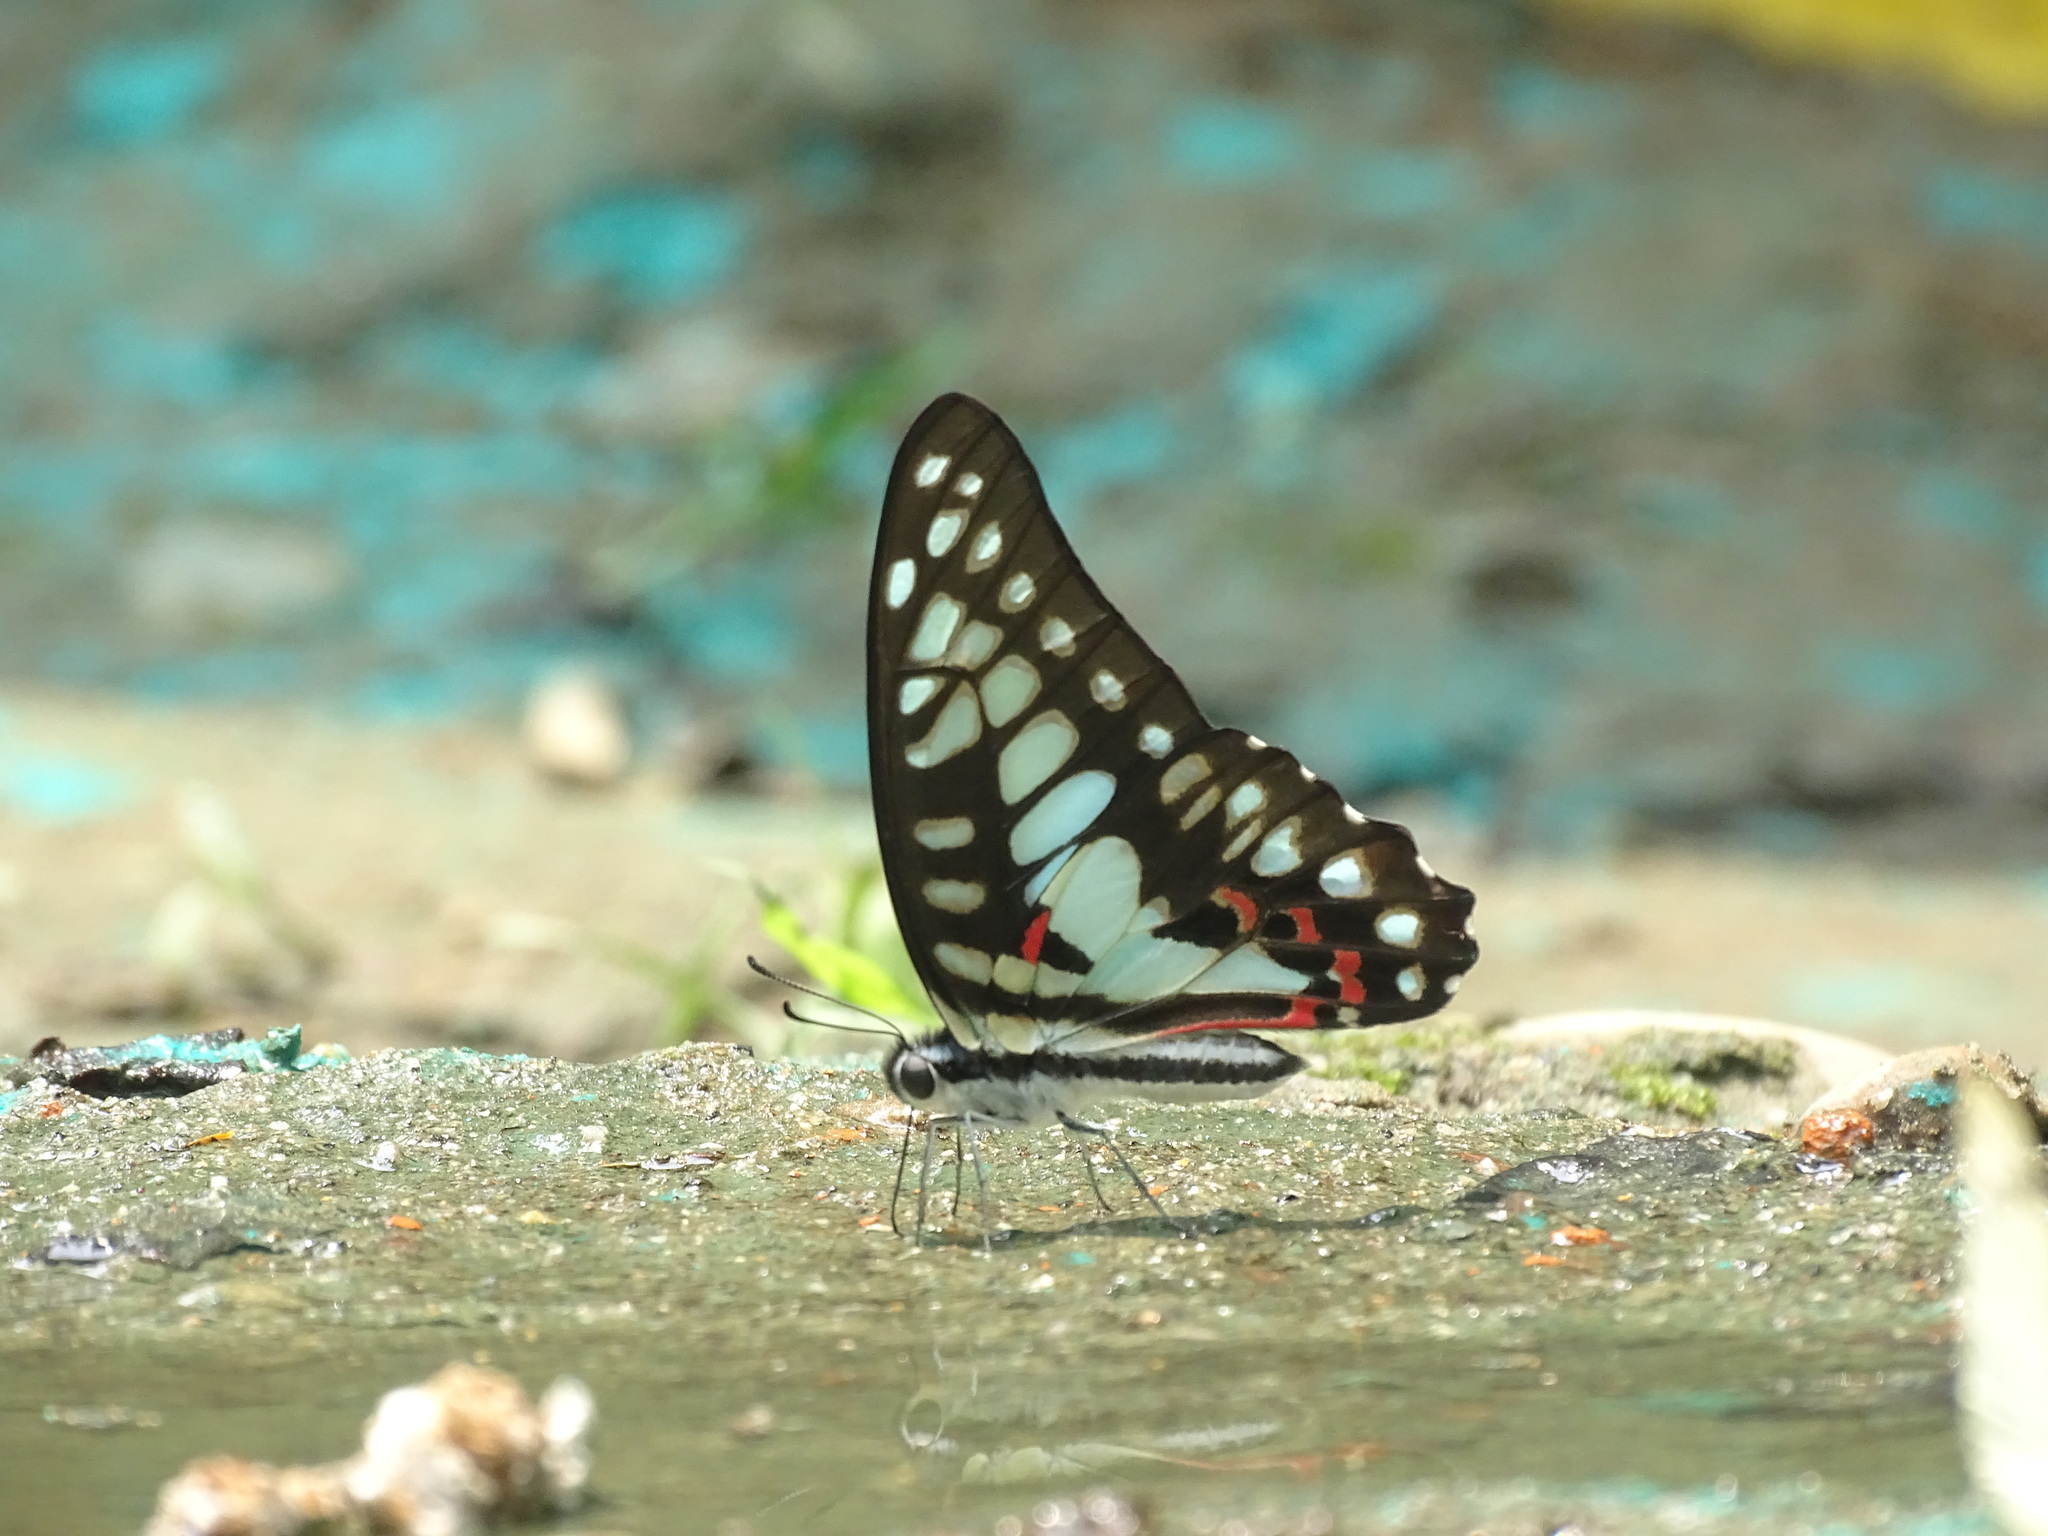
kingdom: Animalia
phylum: Arthropoda
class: Insecta
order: Lepidoptera
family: Papilionidae
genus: Graphium
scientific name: Graphium doson
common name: Common jay
